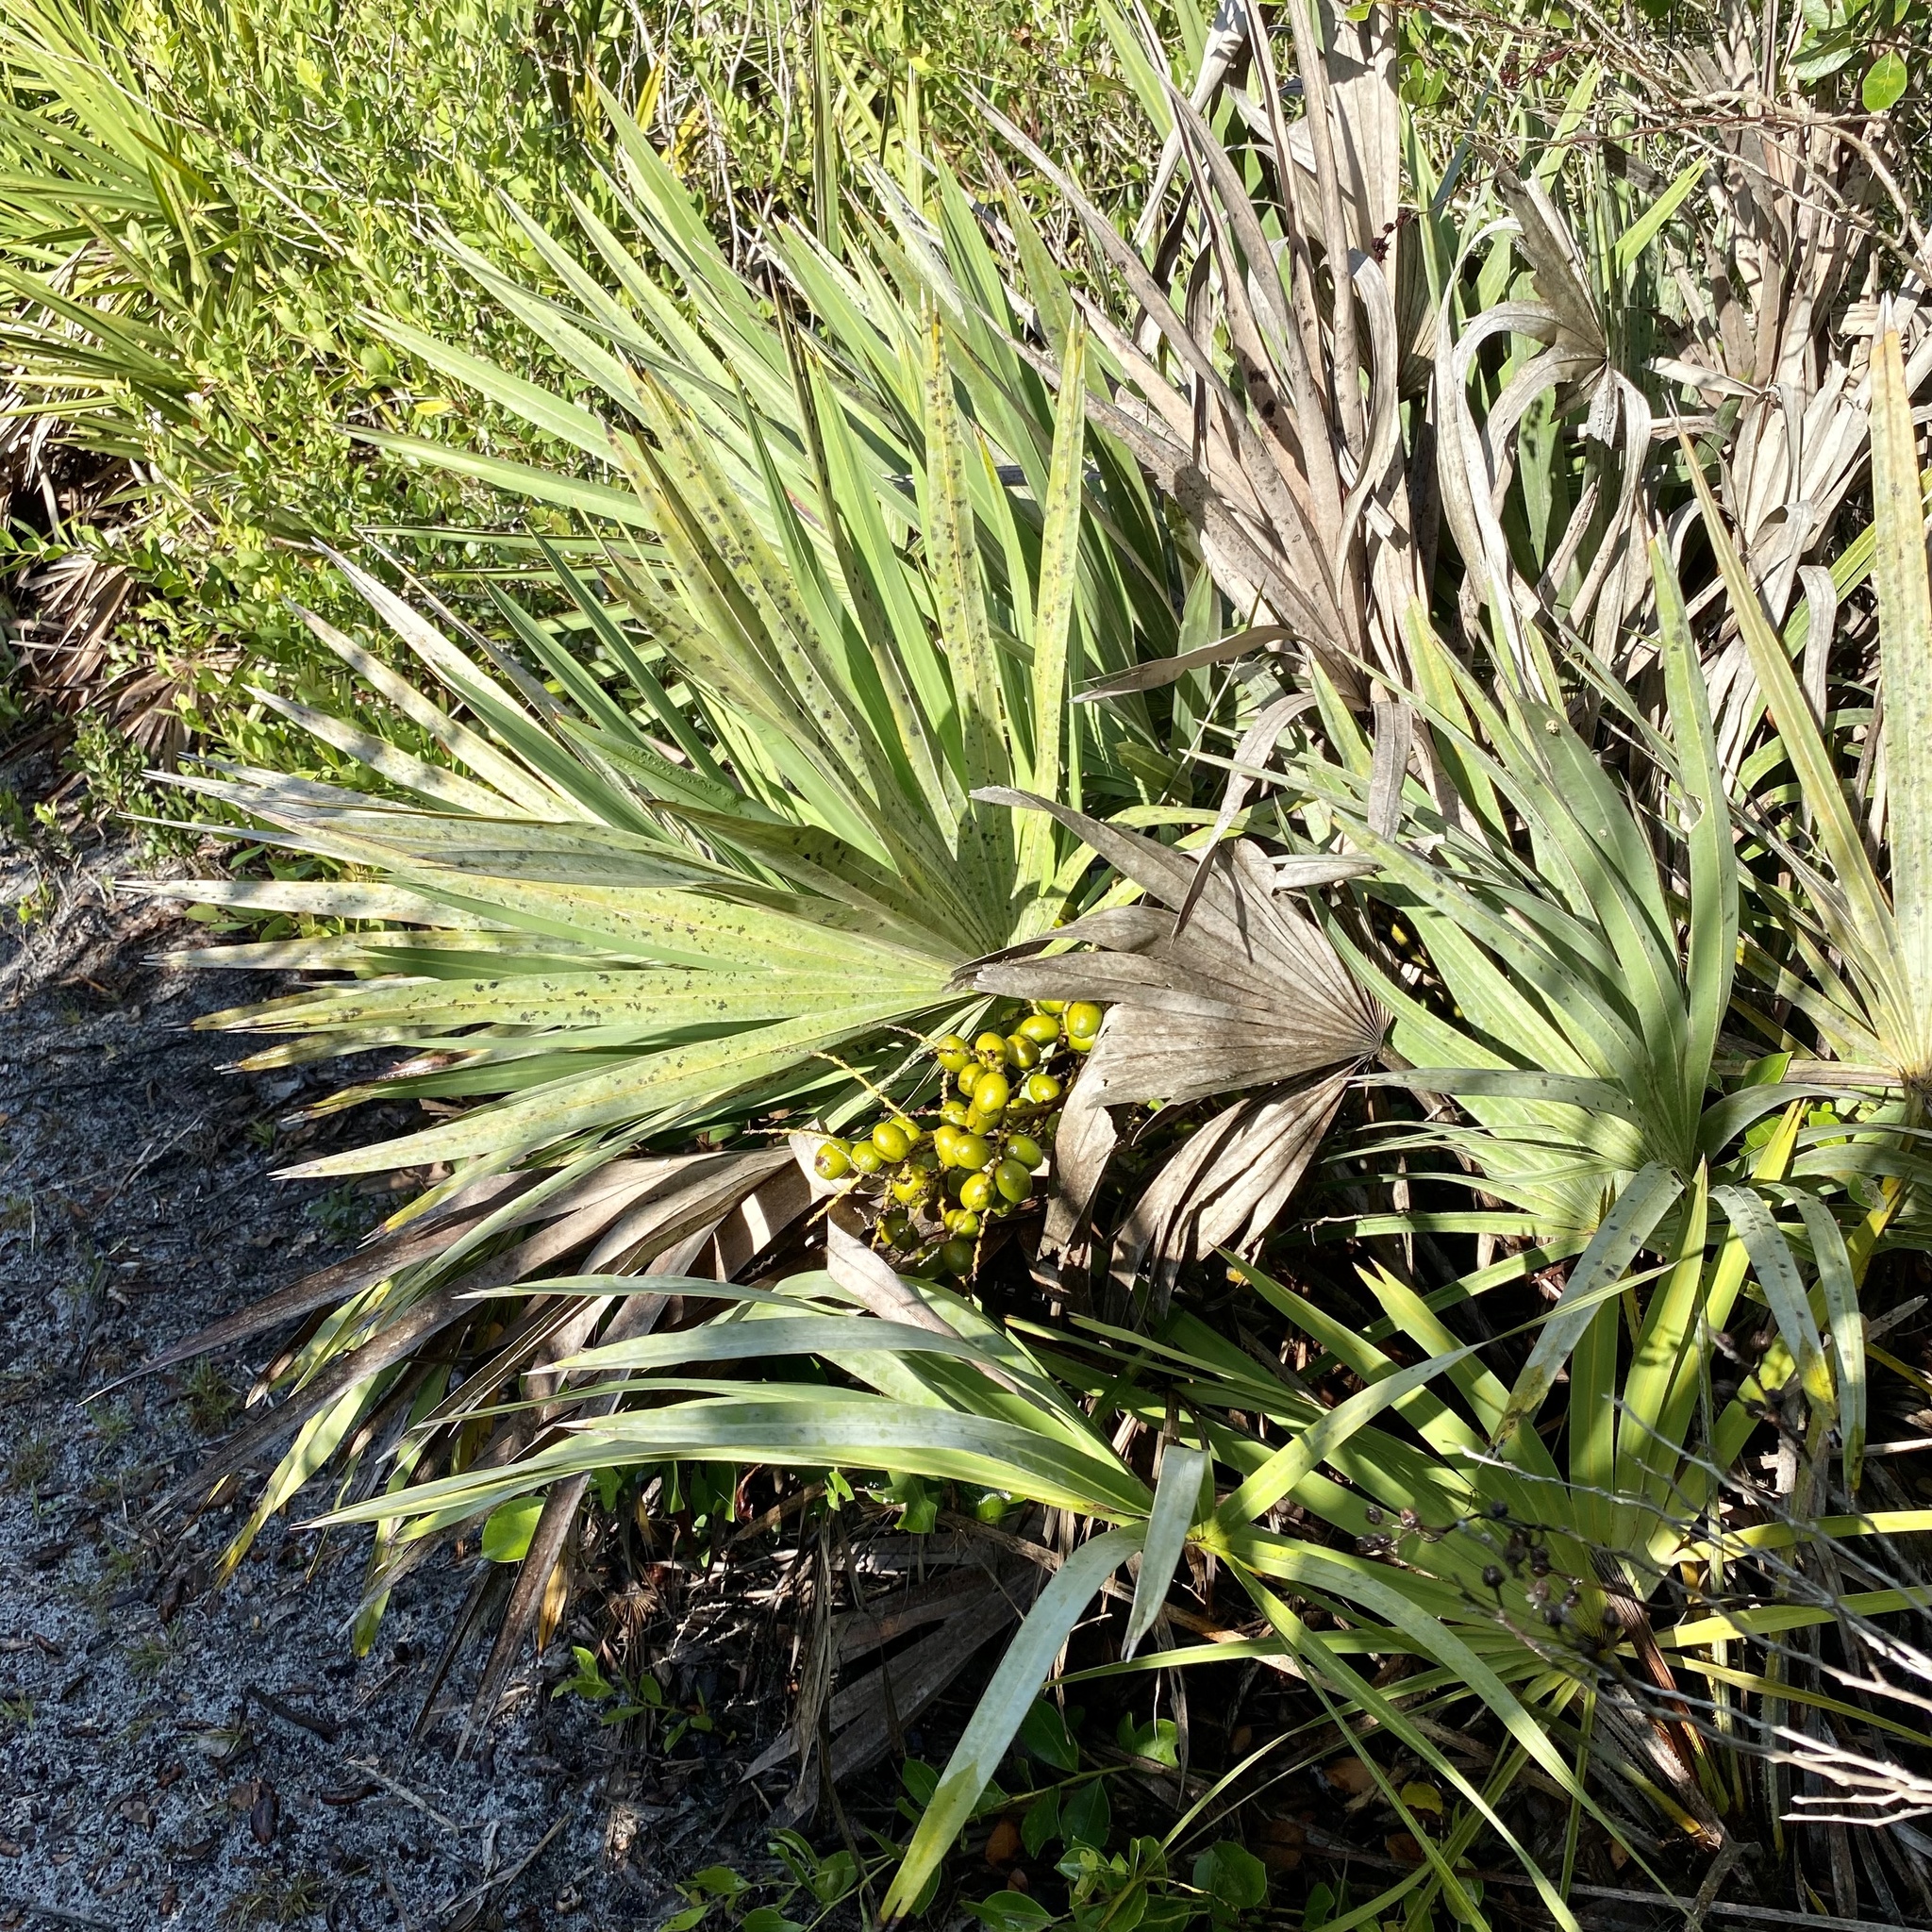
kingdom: Plantae
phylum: Tracheophyta
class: Liliopsida
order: Arecales
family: Arecaceae
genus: Serenoa
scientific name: Serenoa repens
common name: Saw-palmetto
